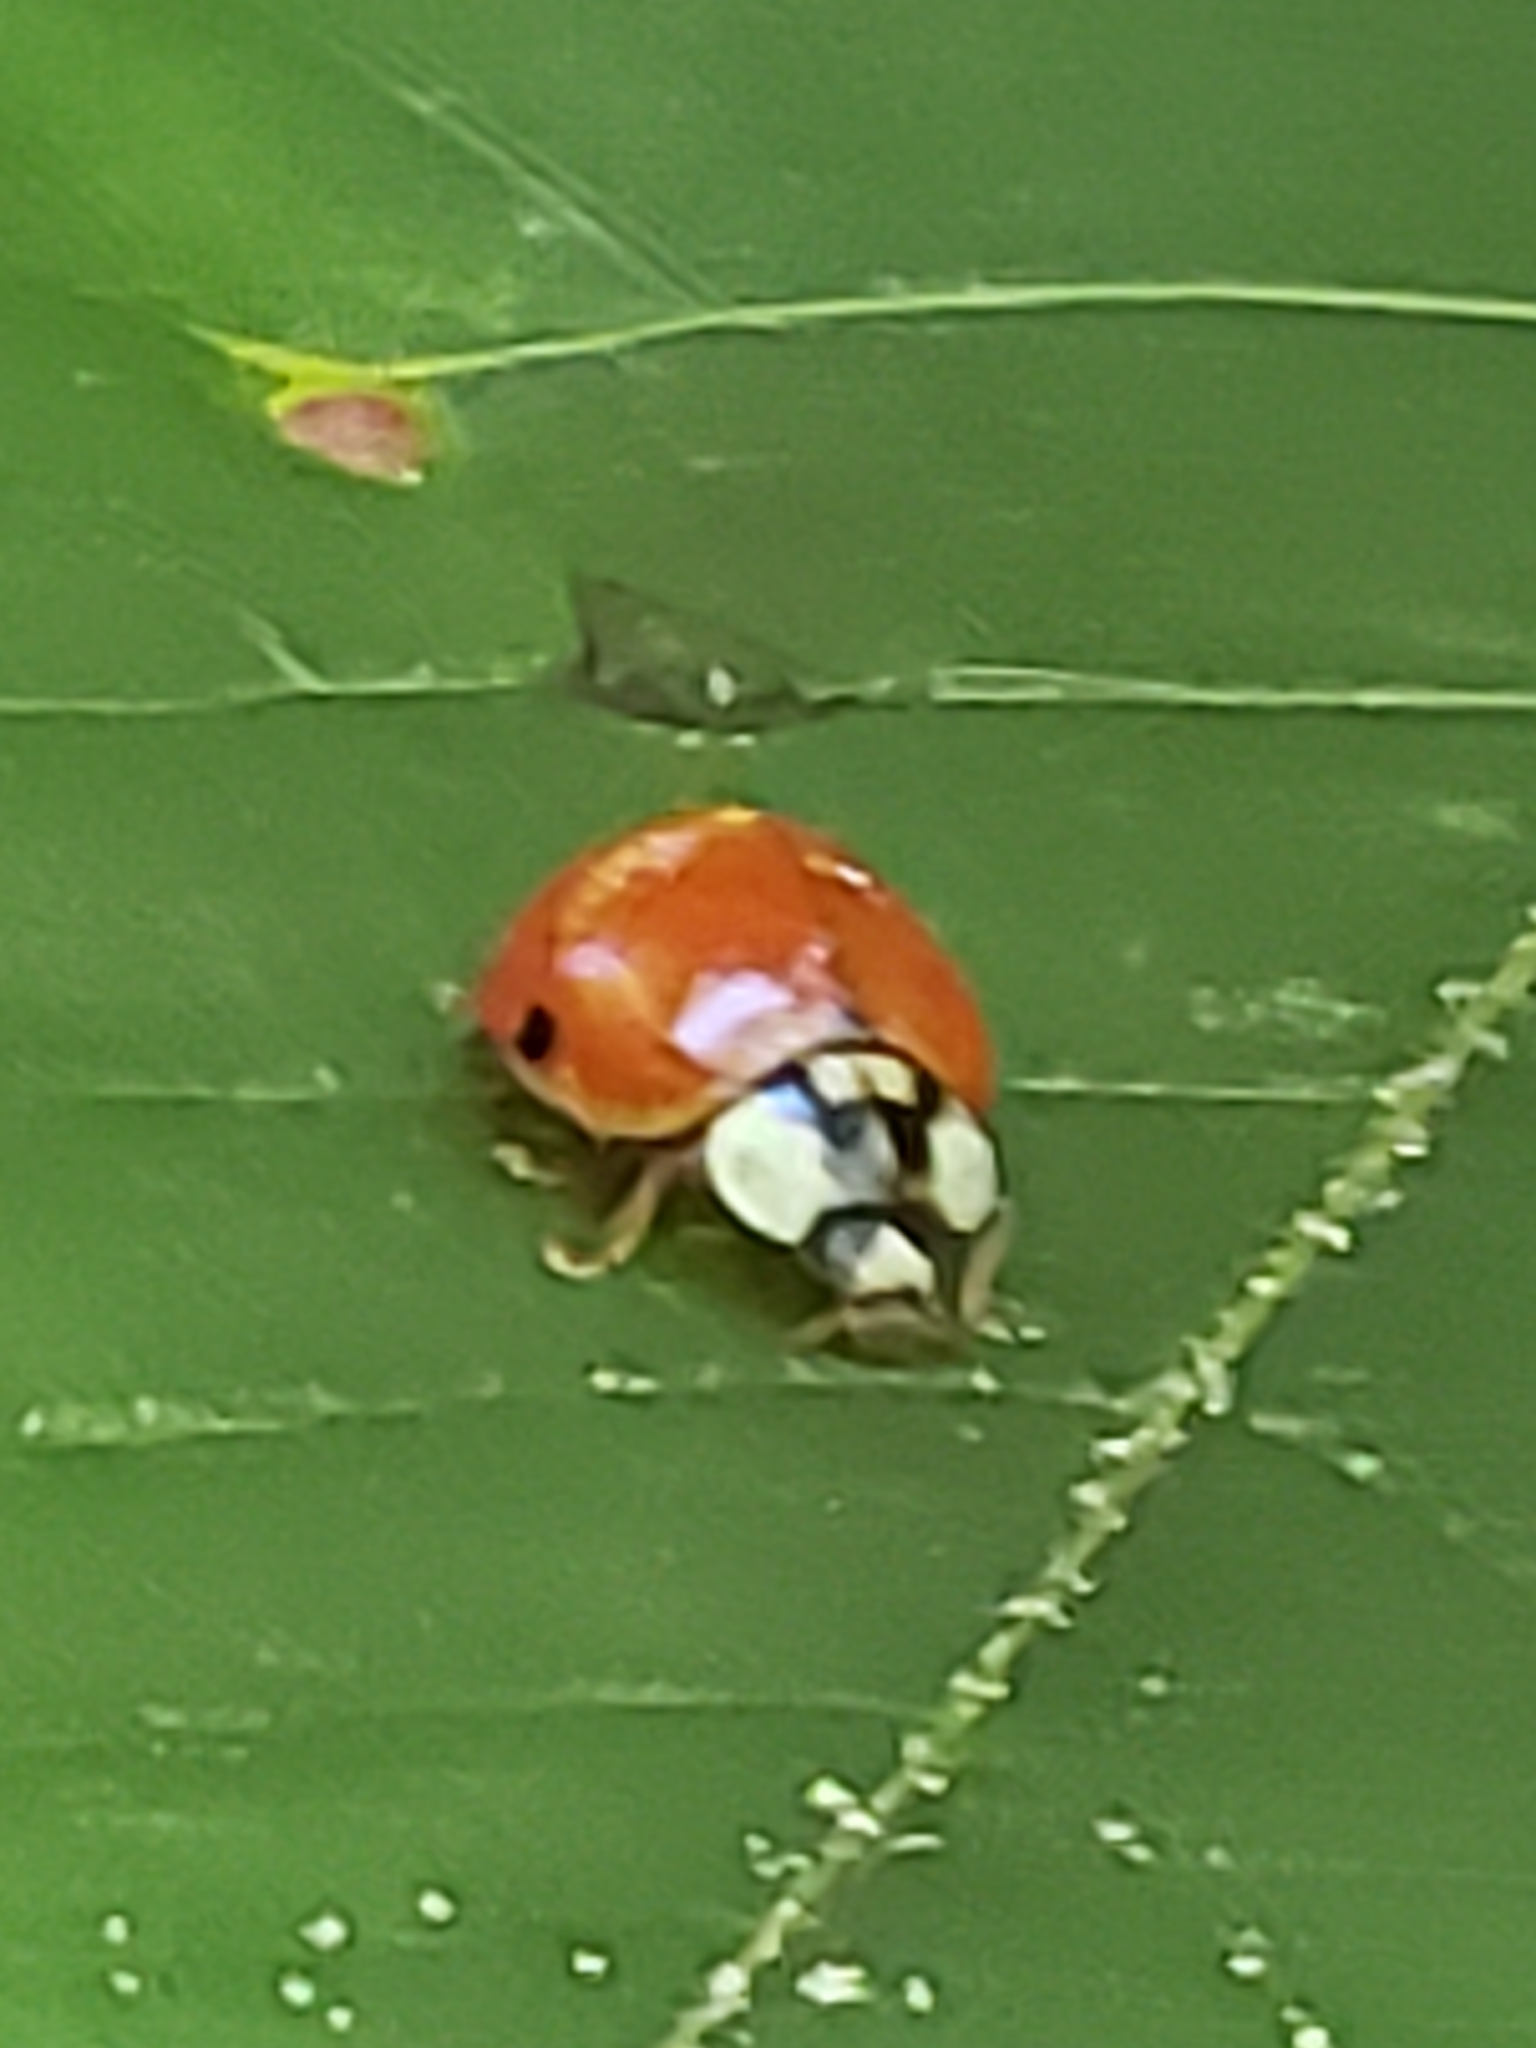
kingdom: Animalia
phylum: Arthropoda
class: Insecta
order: Coleoptera
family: Coccinellidae
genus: Harmonia
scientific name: Harmonia axyridis
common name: Harlequin ladybird
